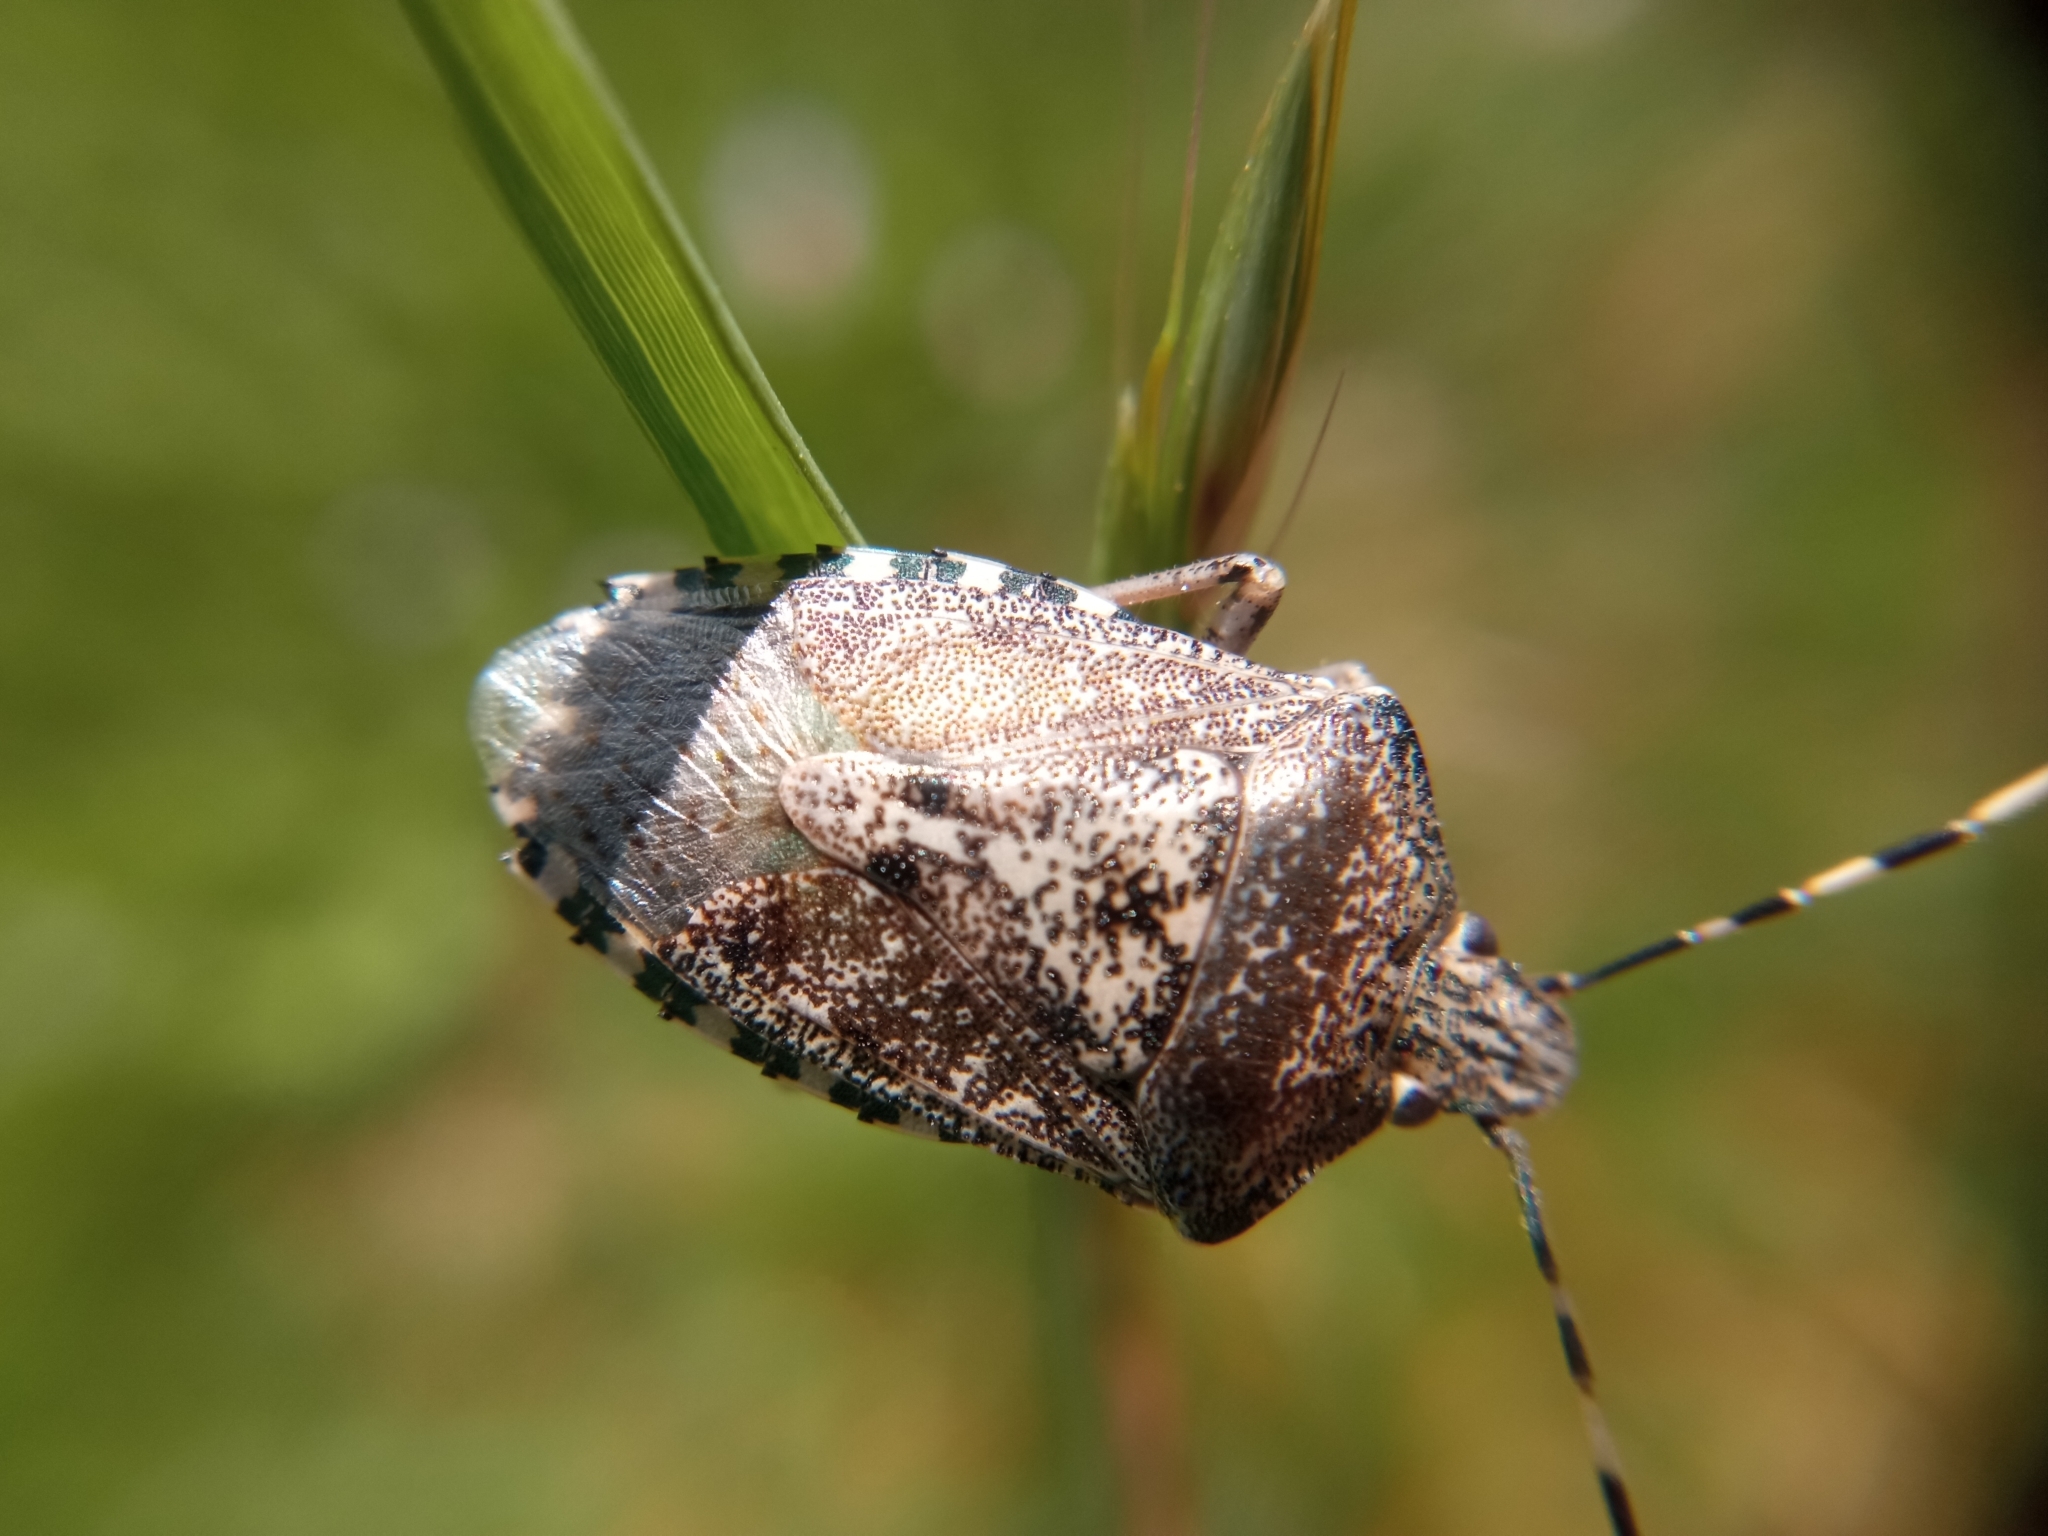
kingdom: Animalia
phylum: Arthropoda
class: Insecta
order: Hemiptera
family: Pentatomidae
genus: Rhaphigaster
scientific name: Rhaphigaster nebulosa
